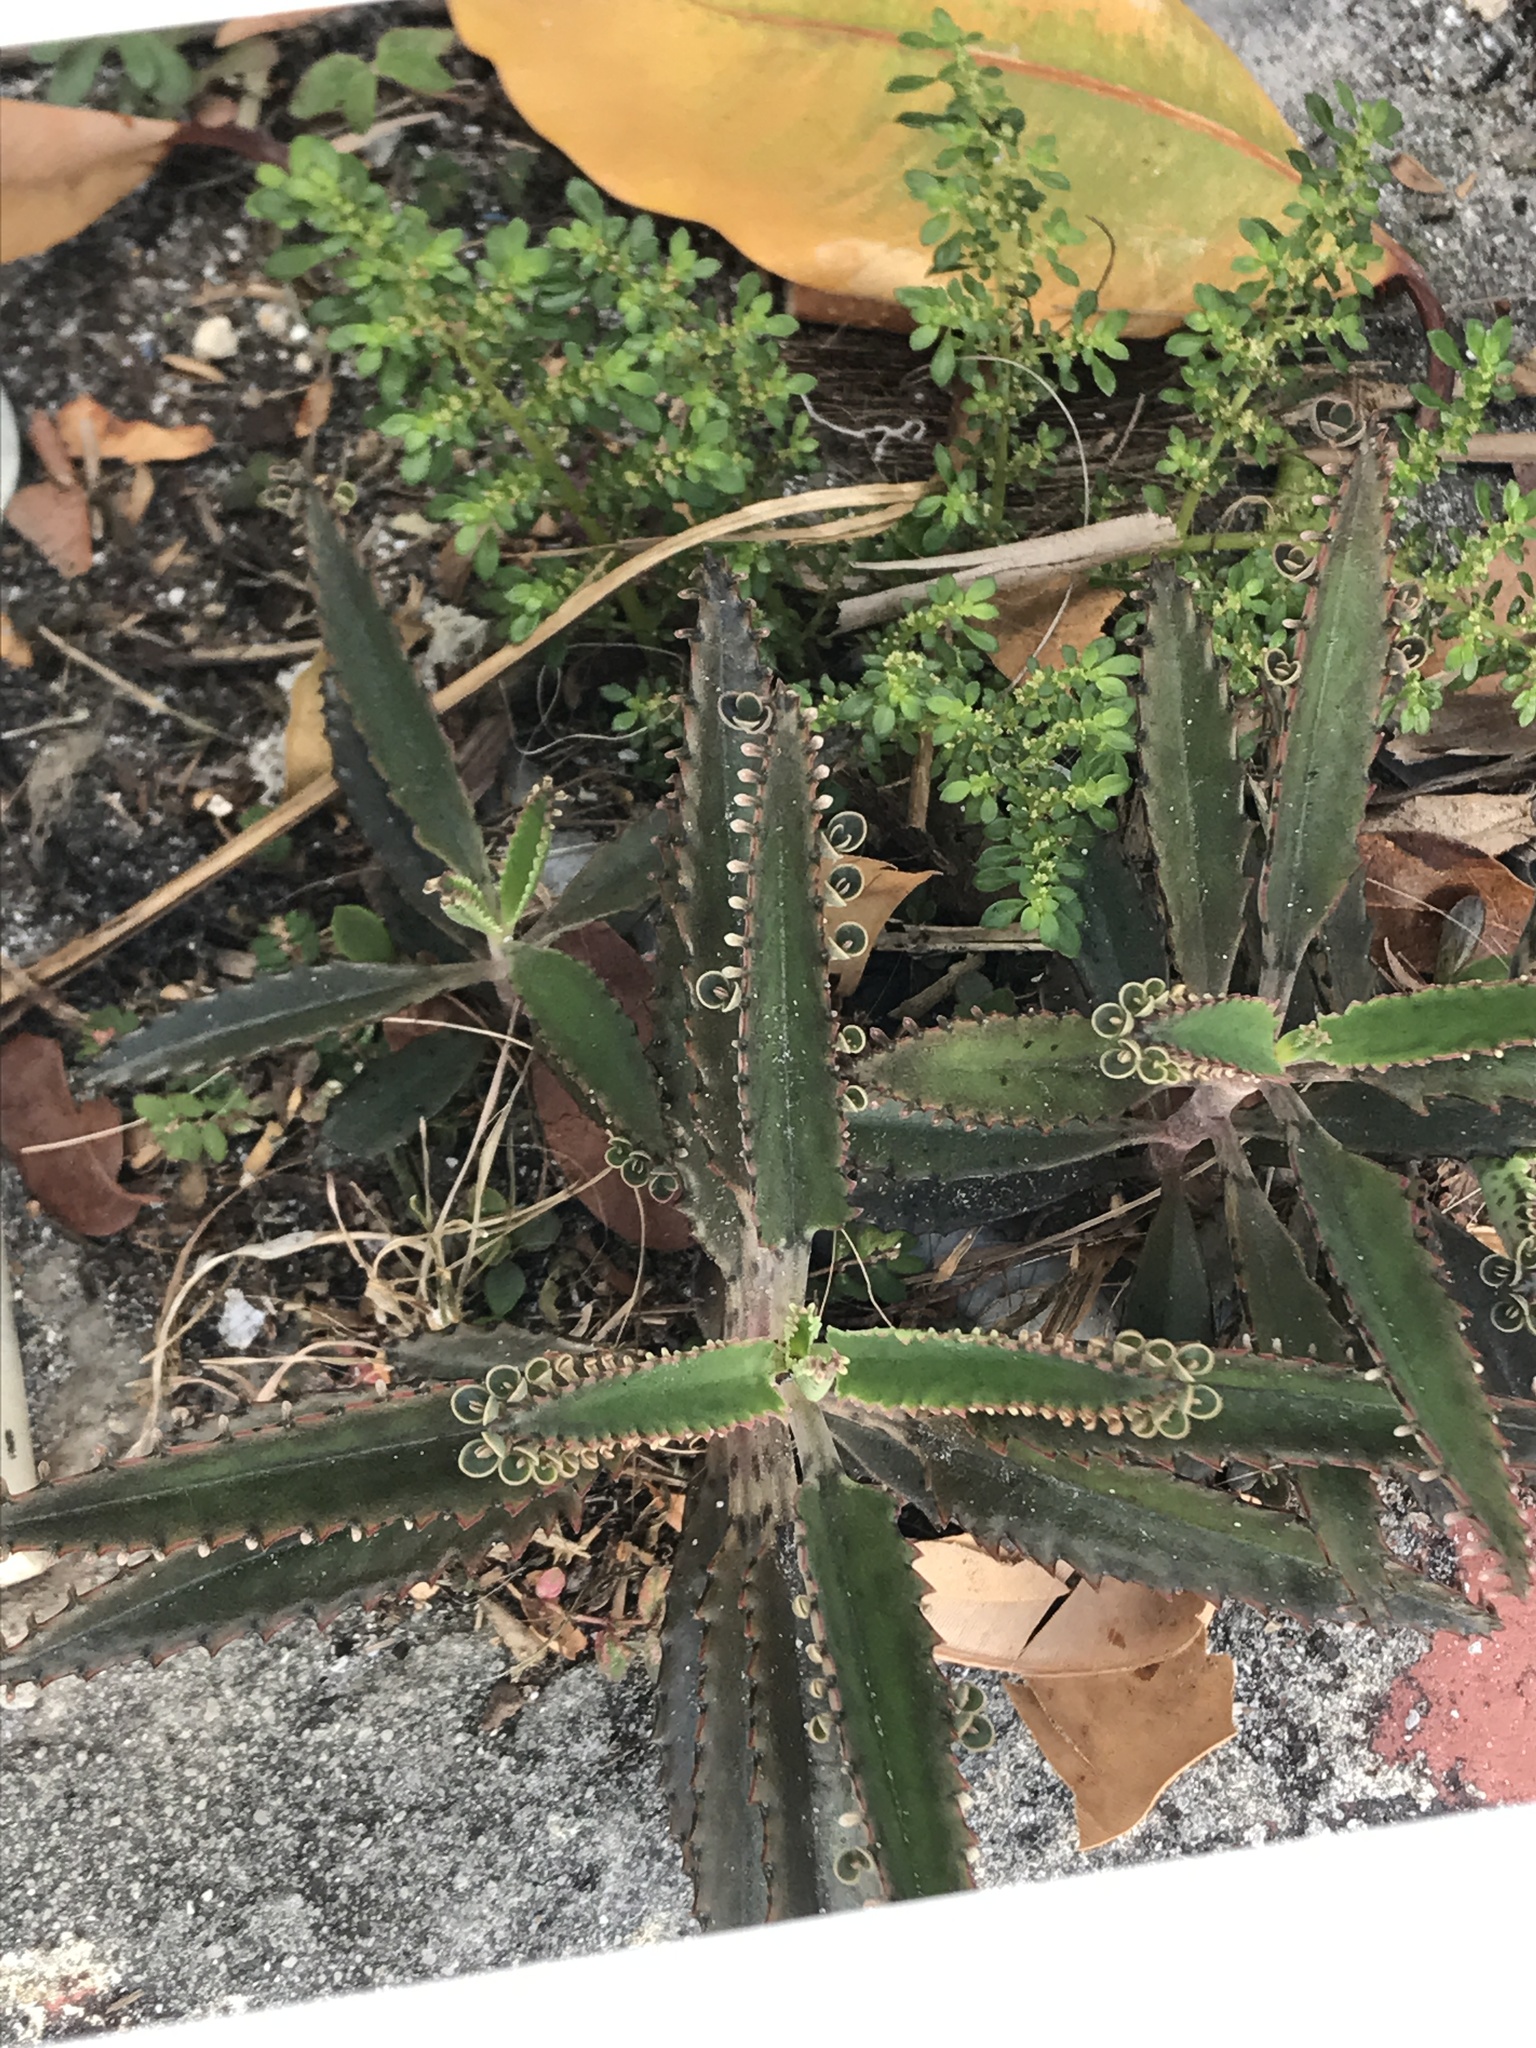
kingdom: Plantae
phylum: Tracheophyta
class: Magnoliopsida
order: Saxifragales
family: Crassulaceae
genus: Kalanchoe
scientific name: Kalanchoe houghtonii
